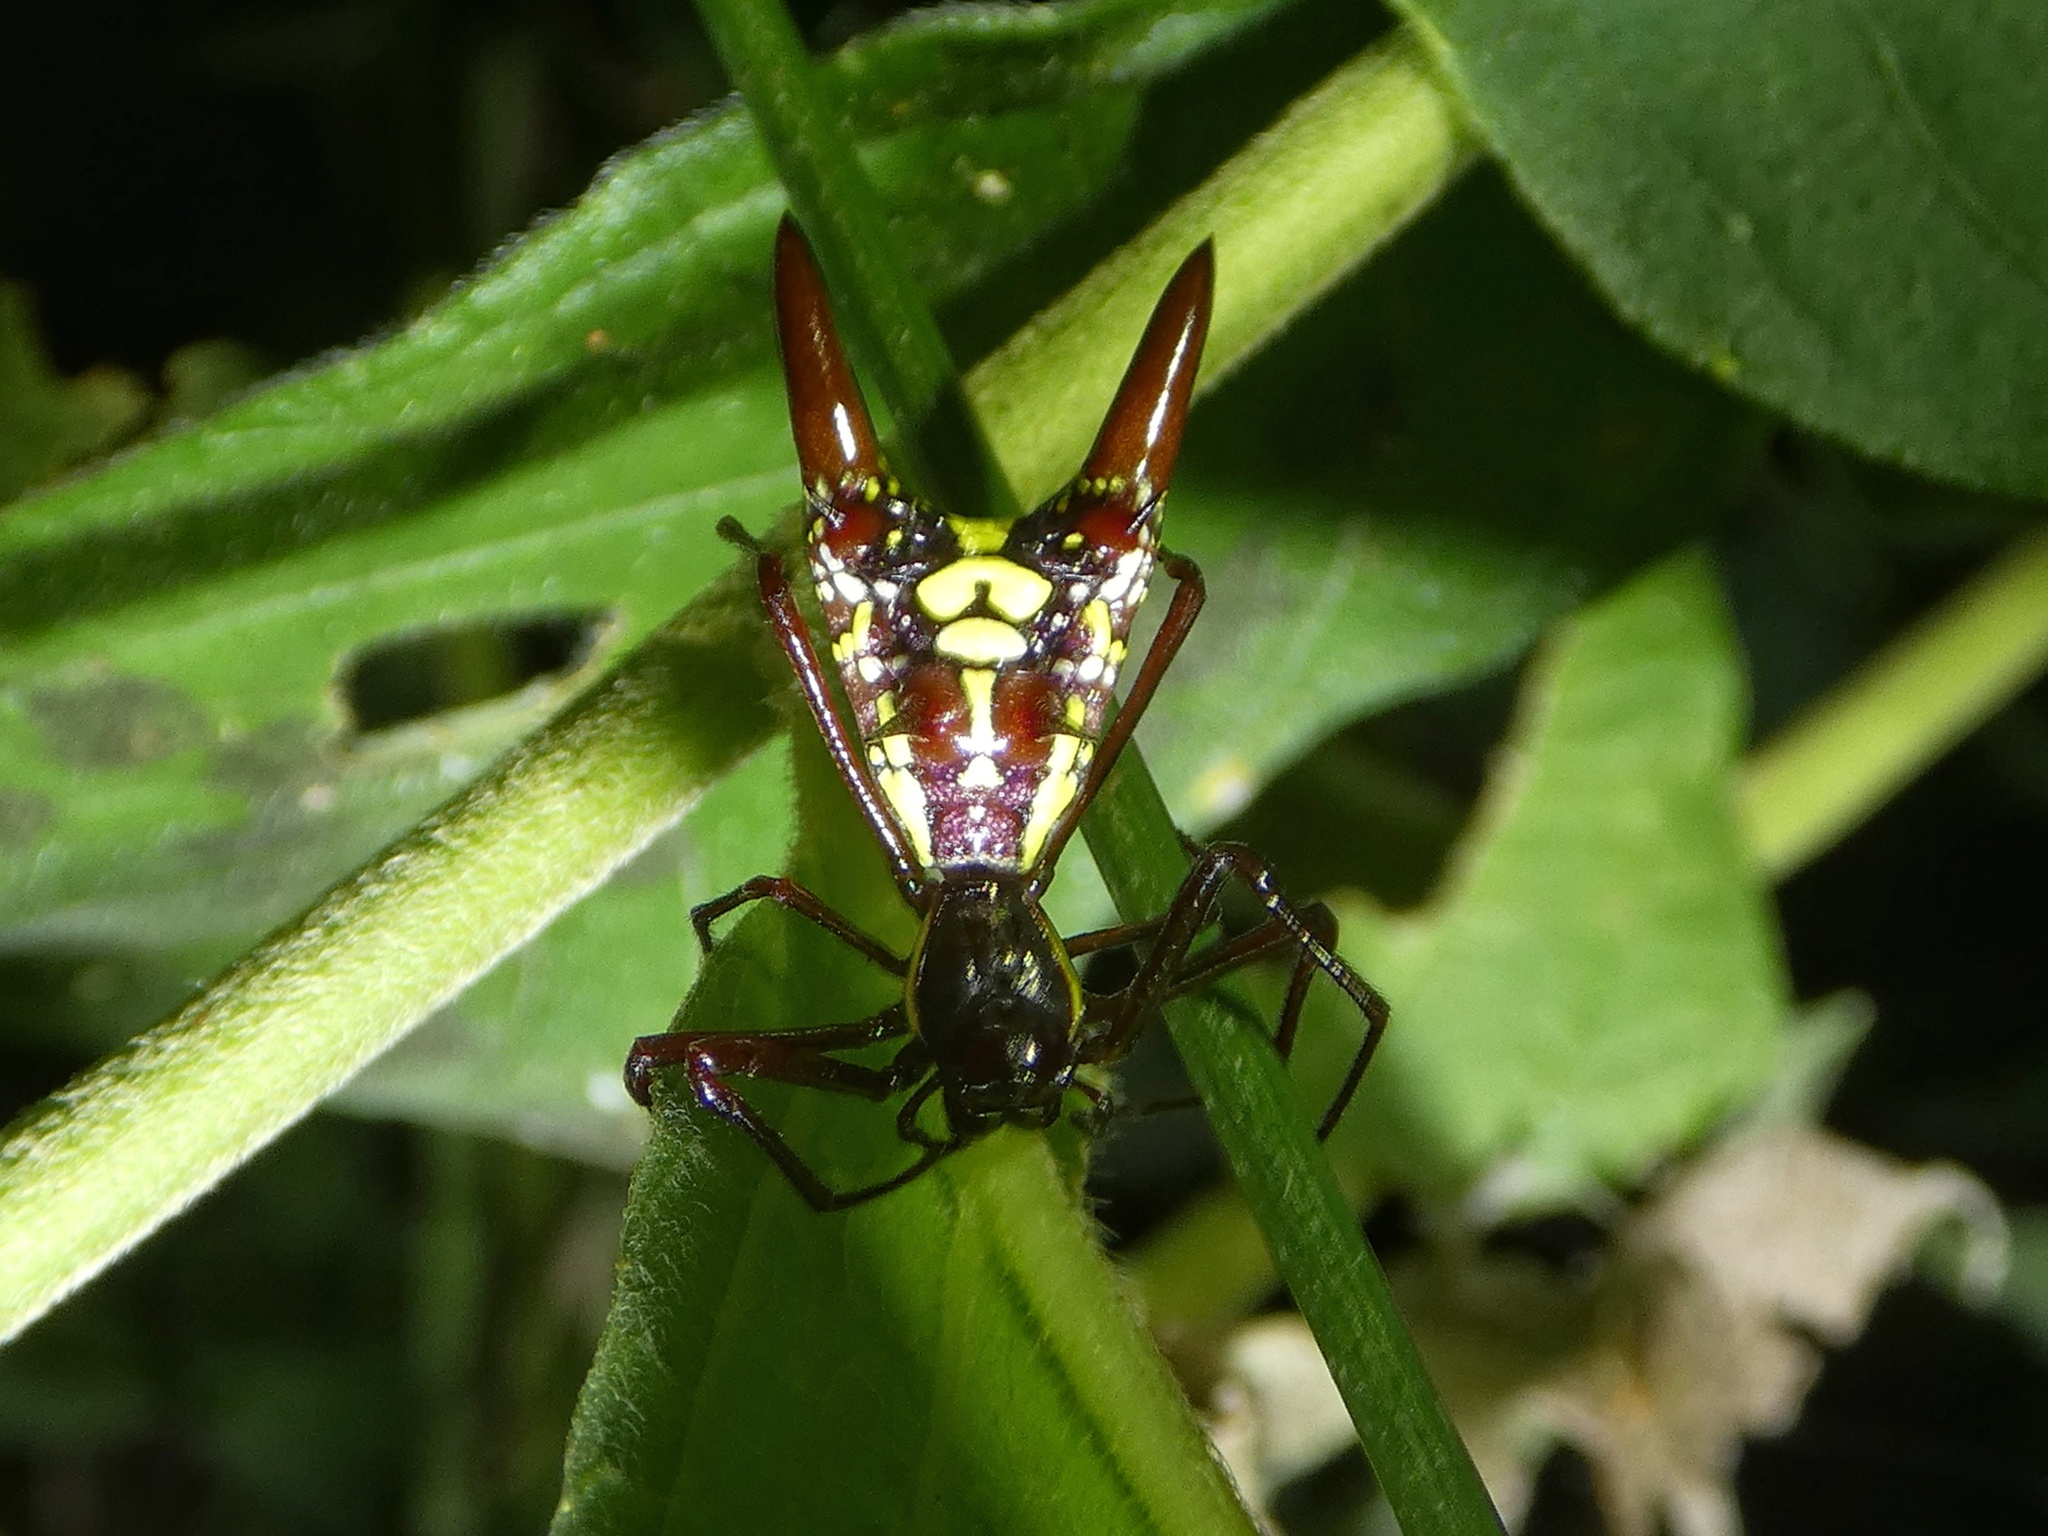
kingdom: Animalia
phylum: Arthropoda
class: Arachnida
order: Araneae
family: Araneidae
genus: Micrathena
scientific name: Micrathena sexspinosa
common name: Orb weavers
